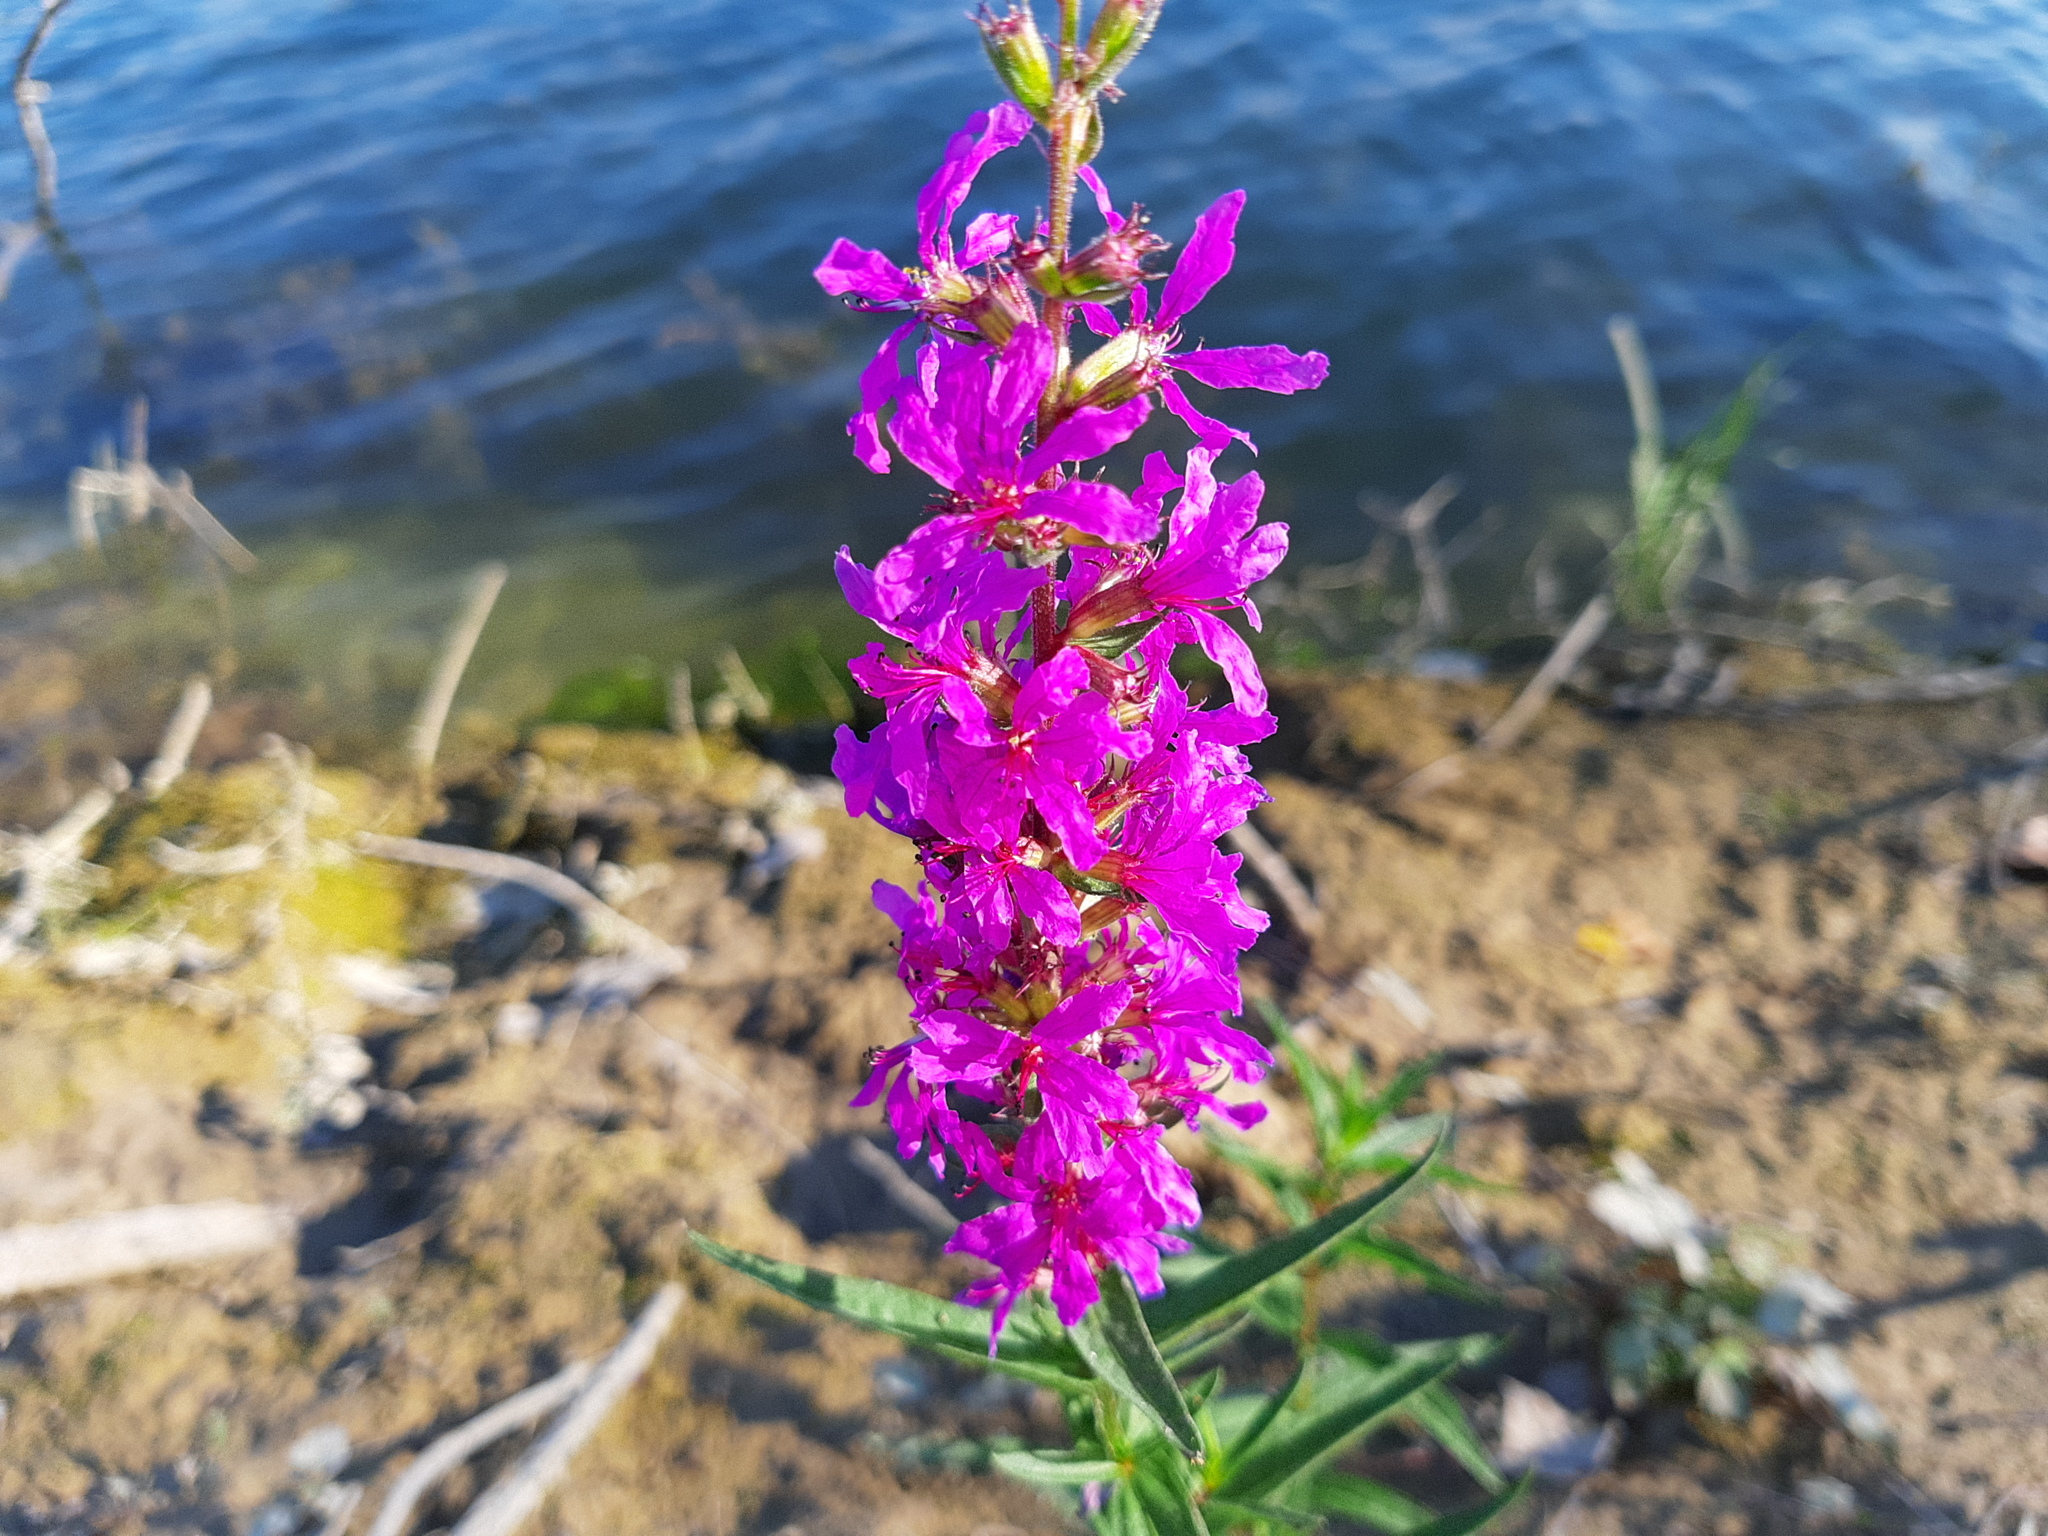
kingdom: Plantae
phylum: Tracheophyta
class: Magnoliopsida
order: Myrtales
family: Lythraceae
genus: Lythrum
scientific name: Lythrum salicaria
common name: Purple loosestrife
